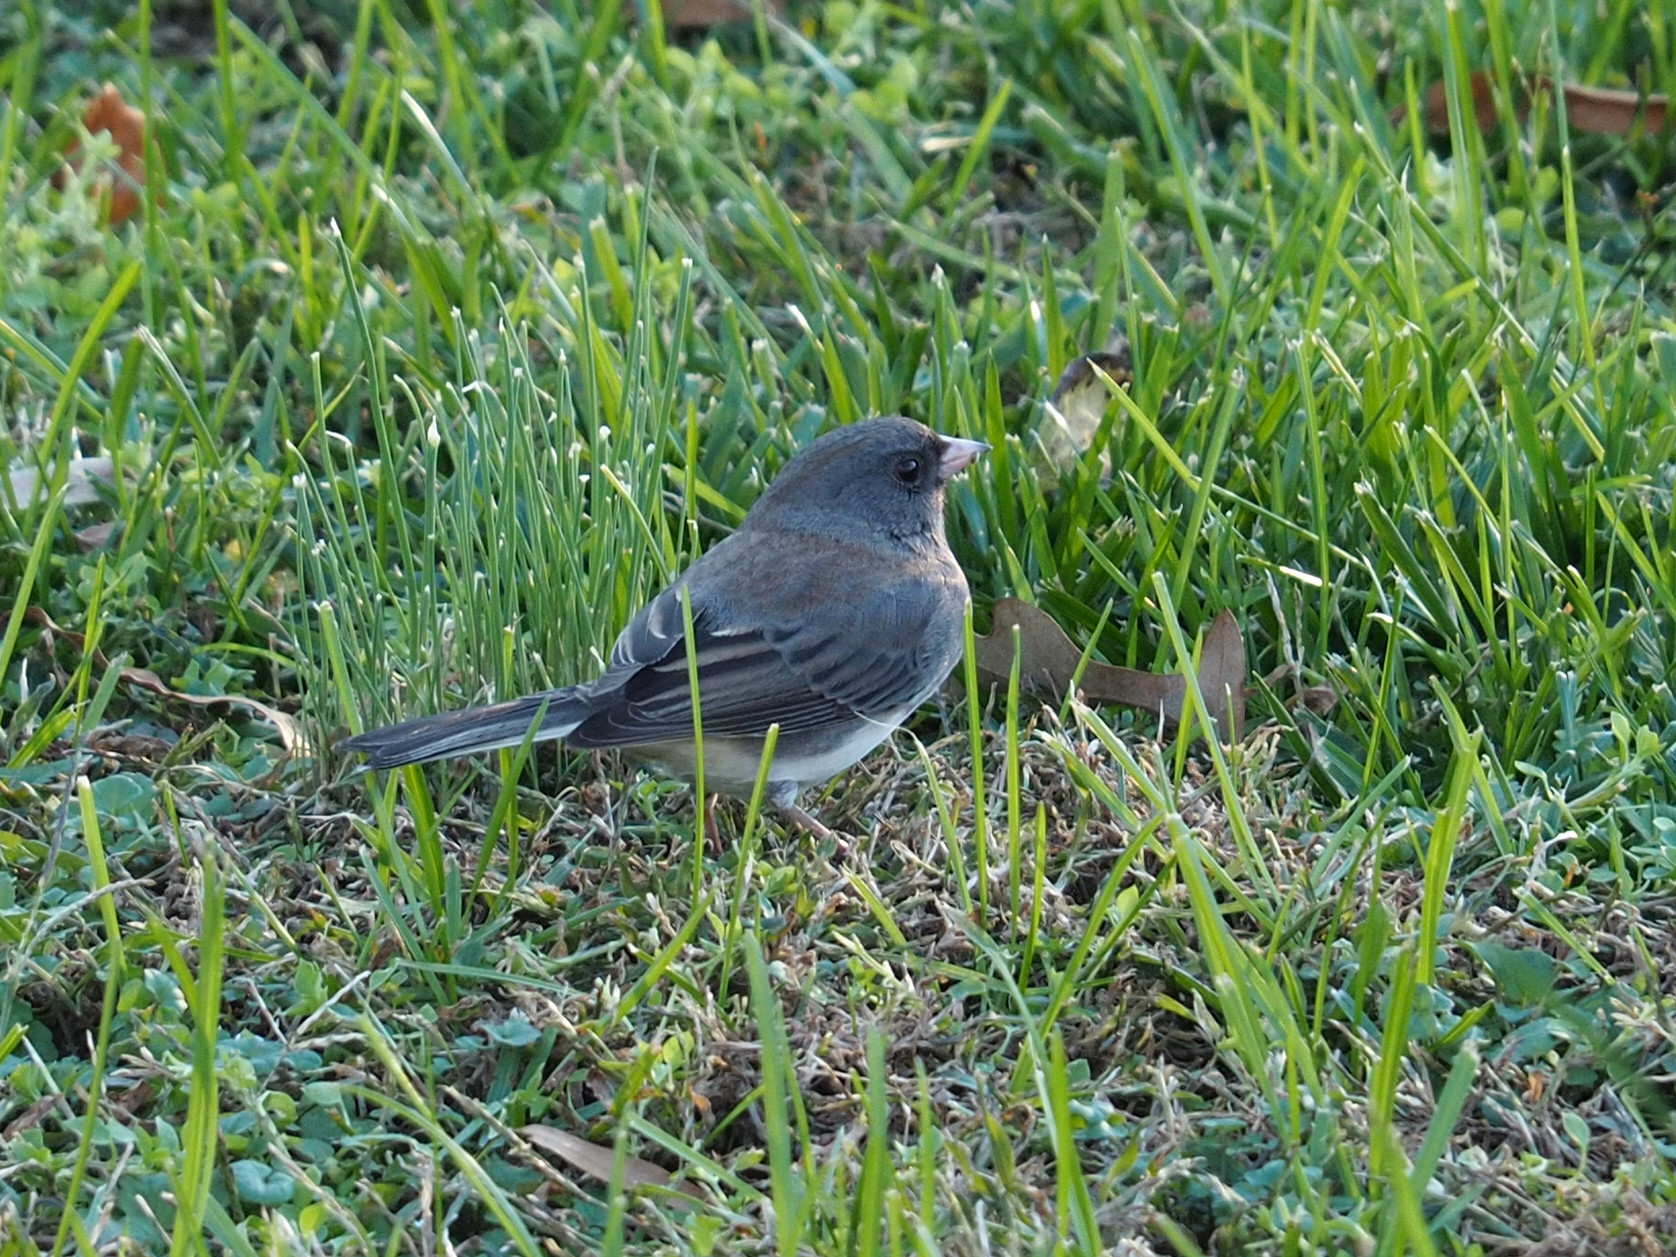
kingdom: Animalia
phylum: Chordata
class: Aves
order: Passeriformes
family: Passerellidae
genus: Junco
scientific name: Junco hyemalis
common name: Dark-eyed junco
